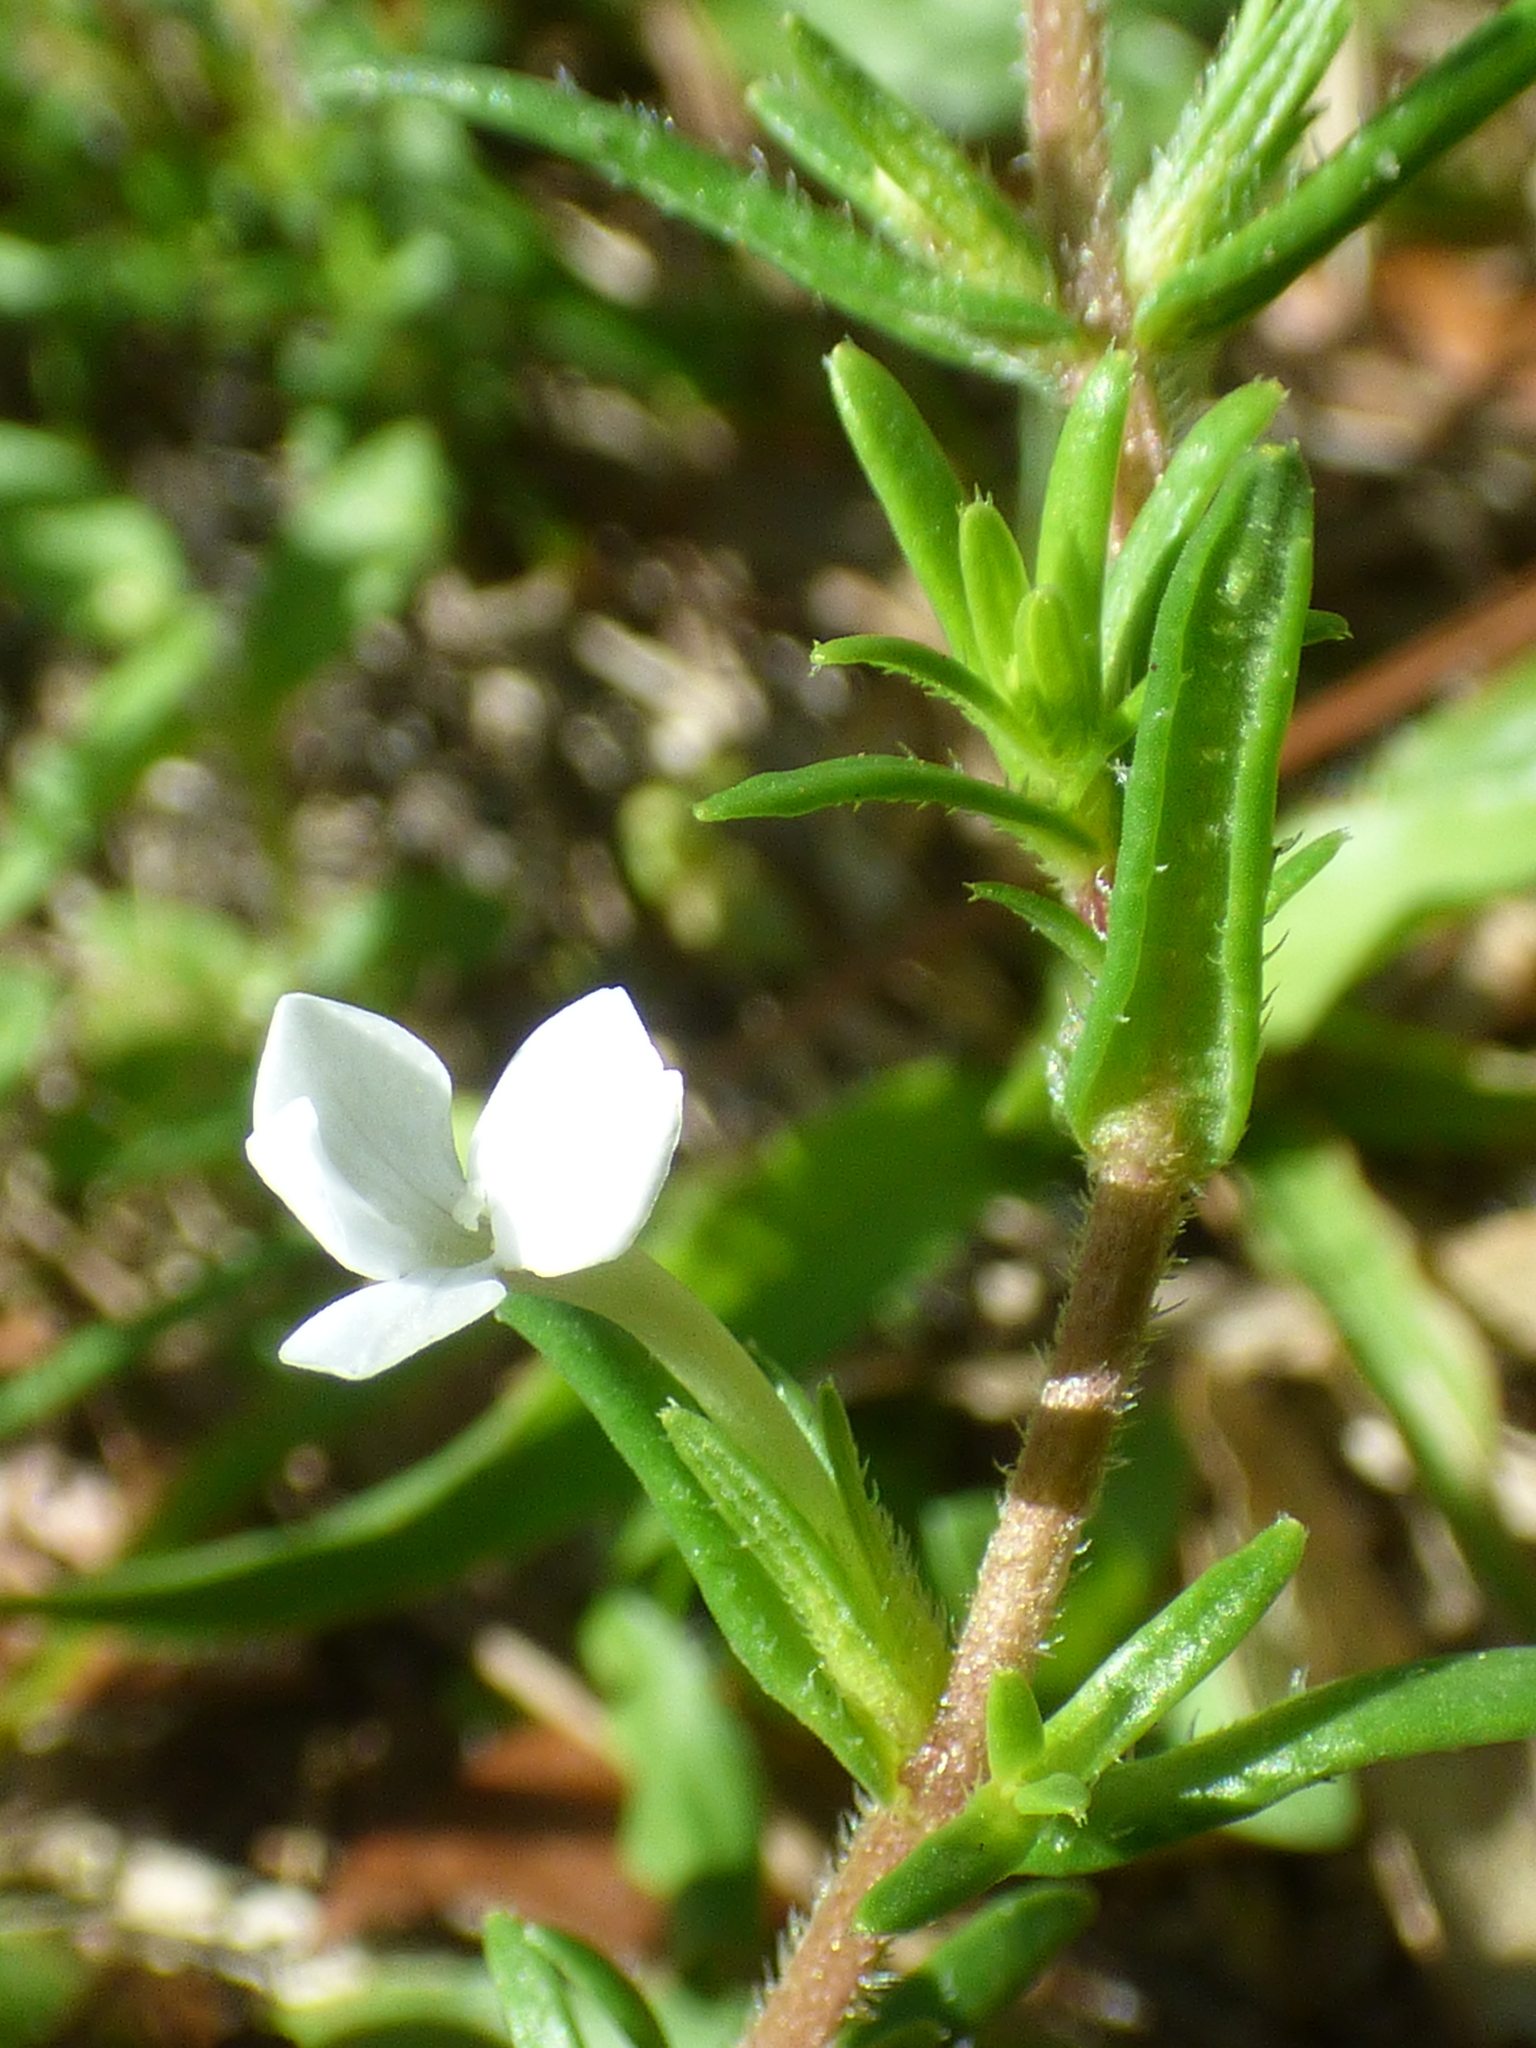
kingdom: Plantae
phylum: Tracheophyta
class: Magnoliopsida
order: Lamiales
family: Plantaginaceae
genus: Gratiola
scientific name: Gratiola hispida
